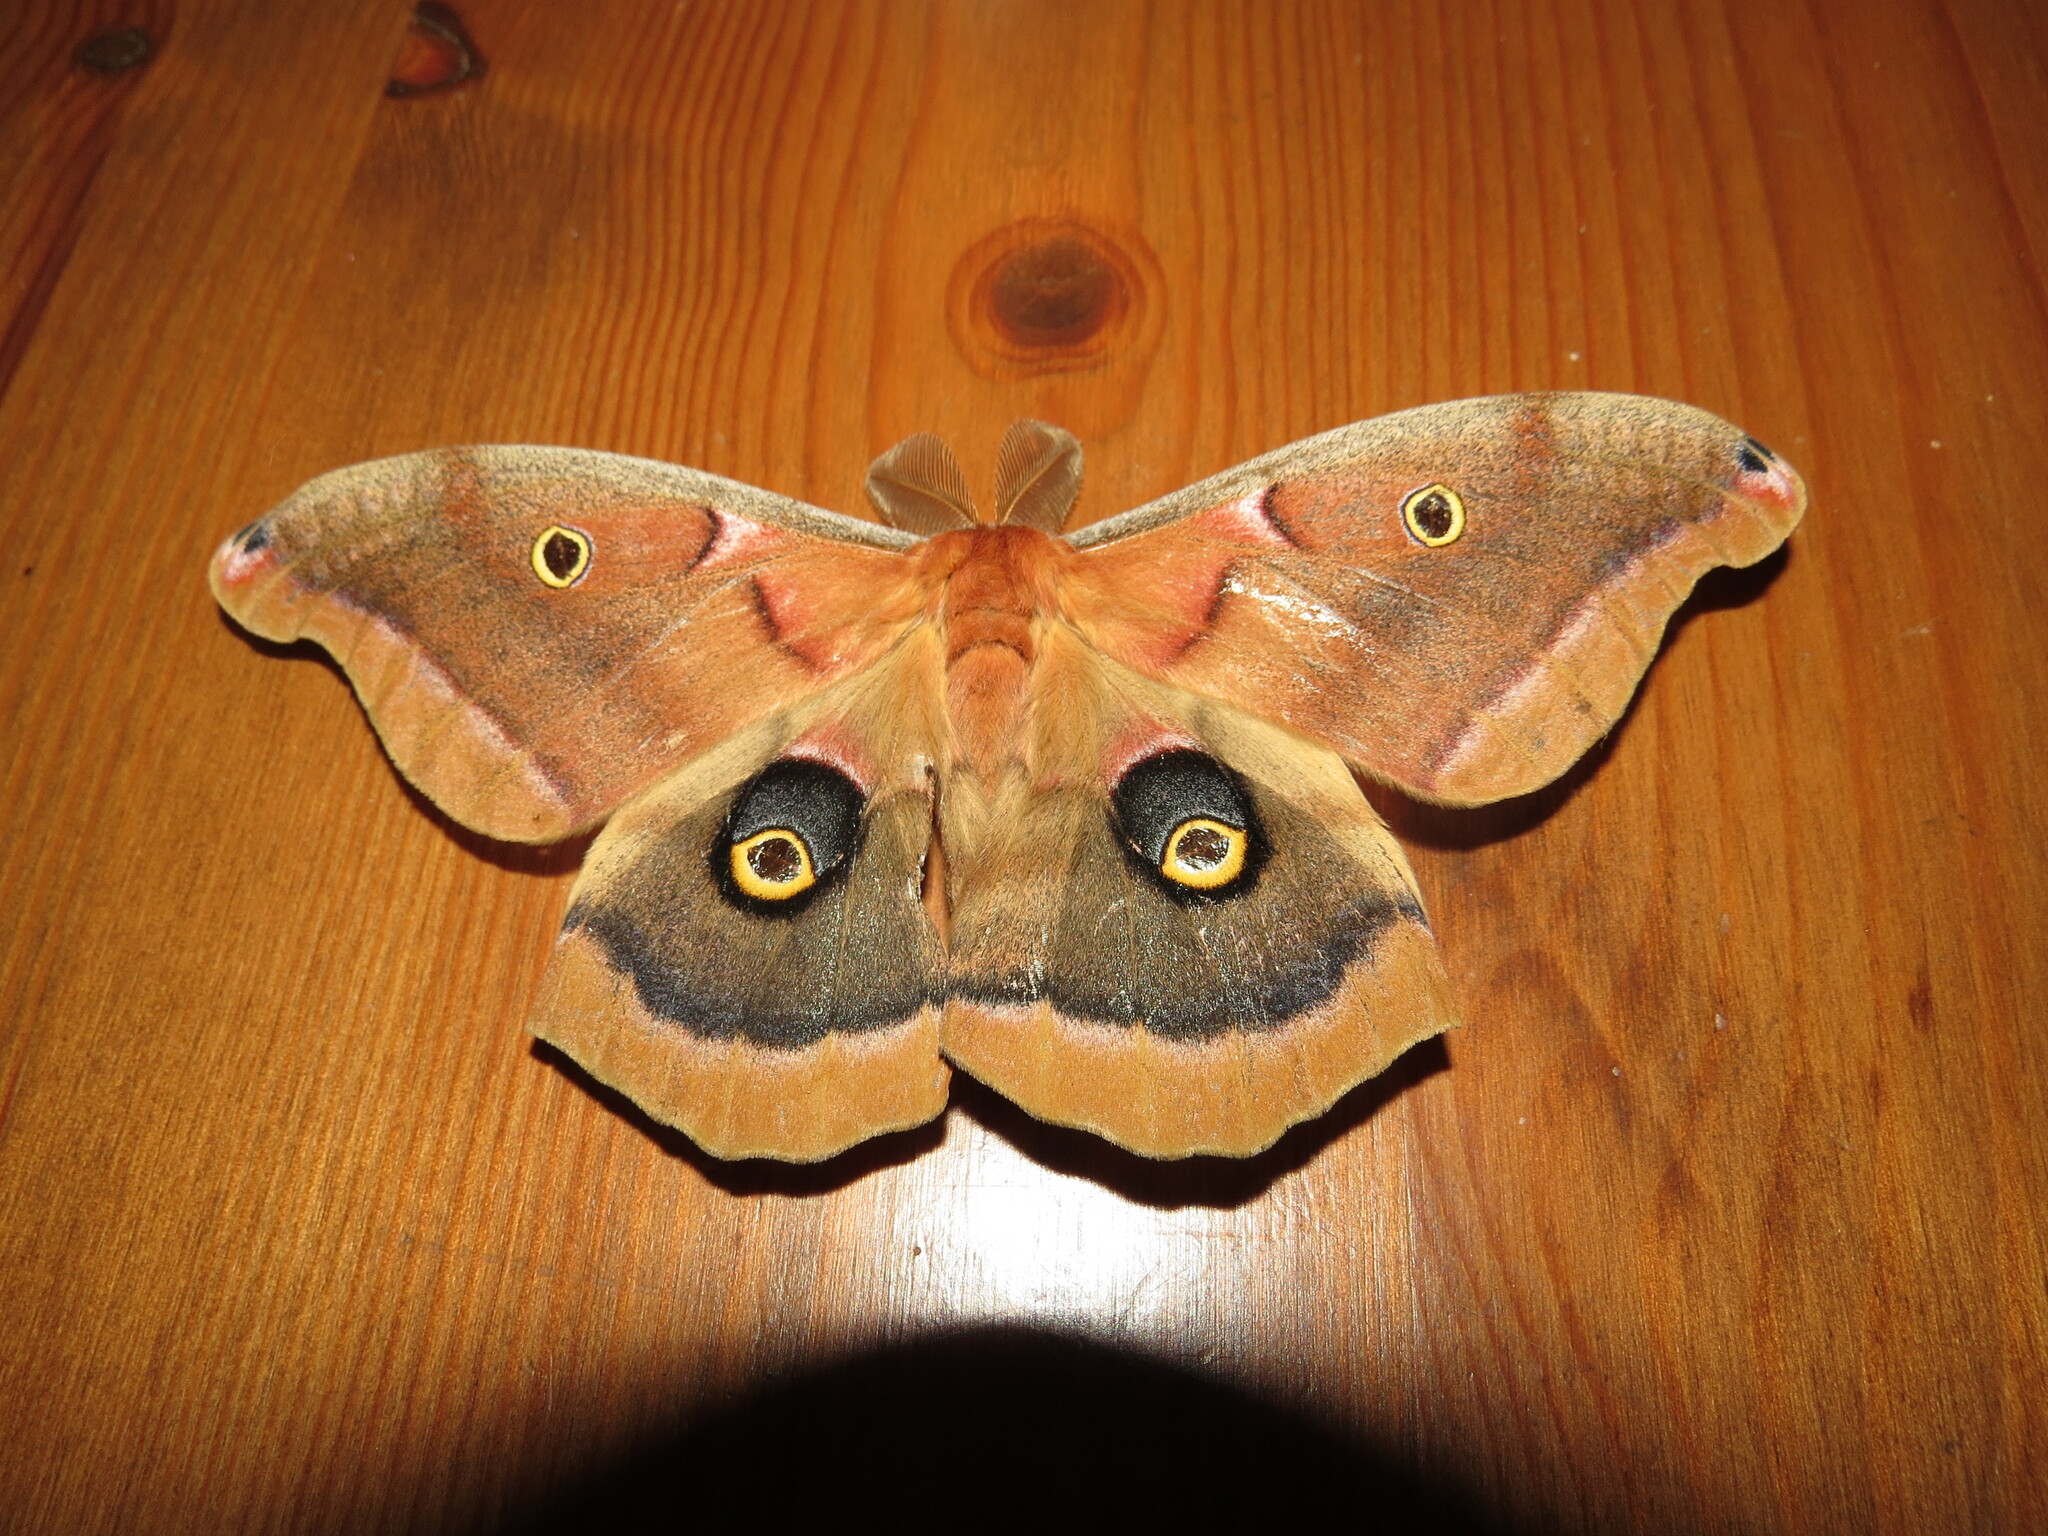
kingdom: Animalia
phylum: Arthropoda
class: Insecta
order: Lepidoptera
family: Saturniidae
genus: Antheraea
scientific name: Antheraea polyphemus
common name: Polyphemus moth
